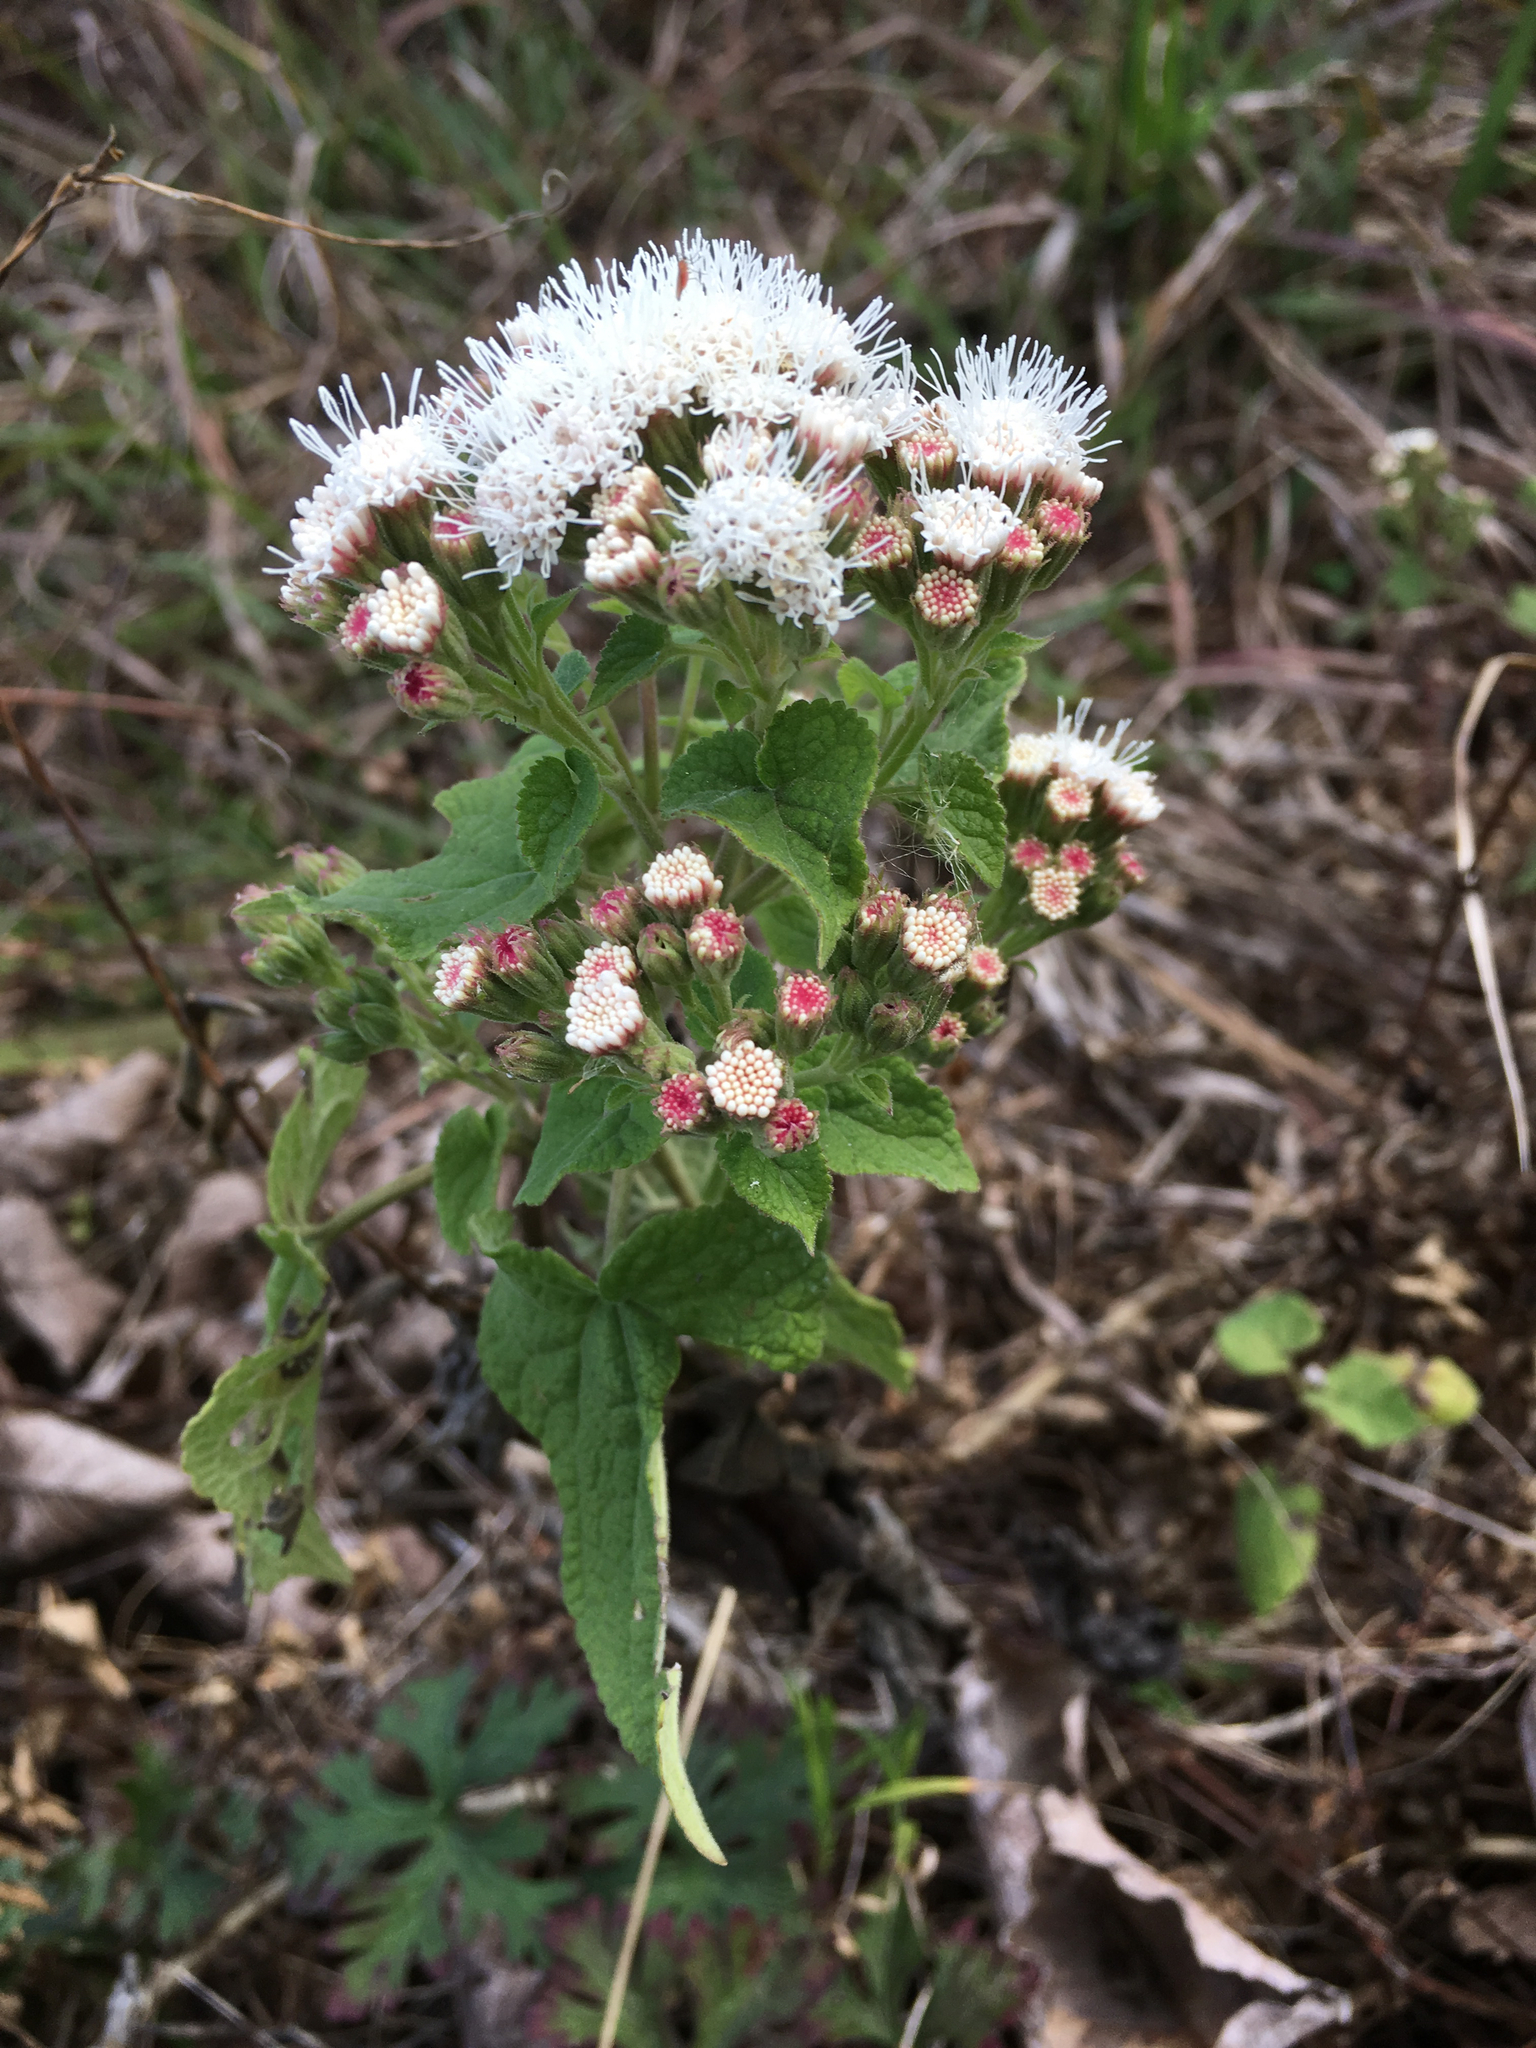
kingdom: Plantae
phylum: Tracheophyta
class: Magnoliopsida
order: Asterales
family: Asteraceae
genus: Ageratina
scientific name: Ageratina petiolaris
